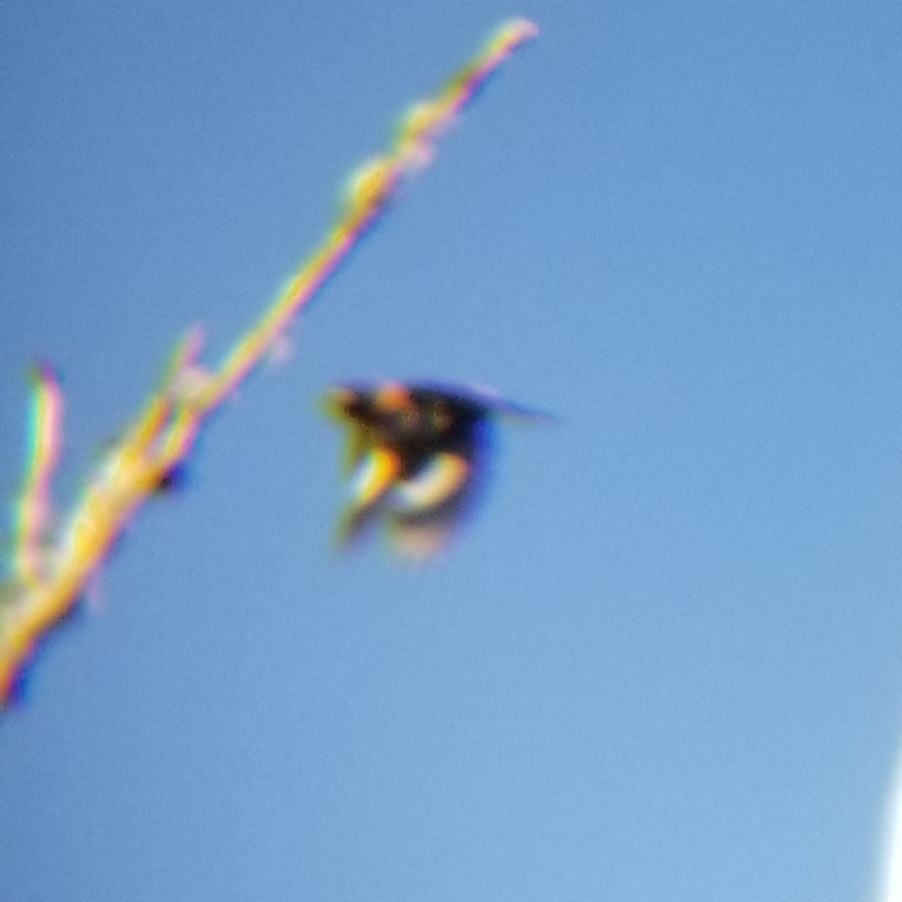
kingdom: Animalia
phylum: Chordata
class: Aves
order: Passeriformes
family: Cardinalidae
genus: Pheucticus
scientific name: Pheucticus melanocephalus
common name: Black-headed grosbeak
